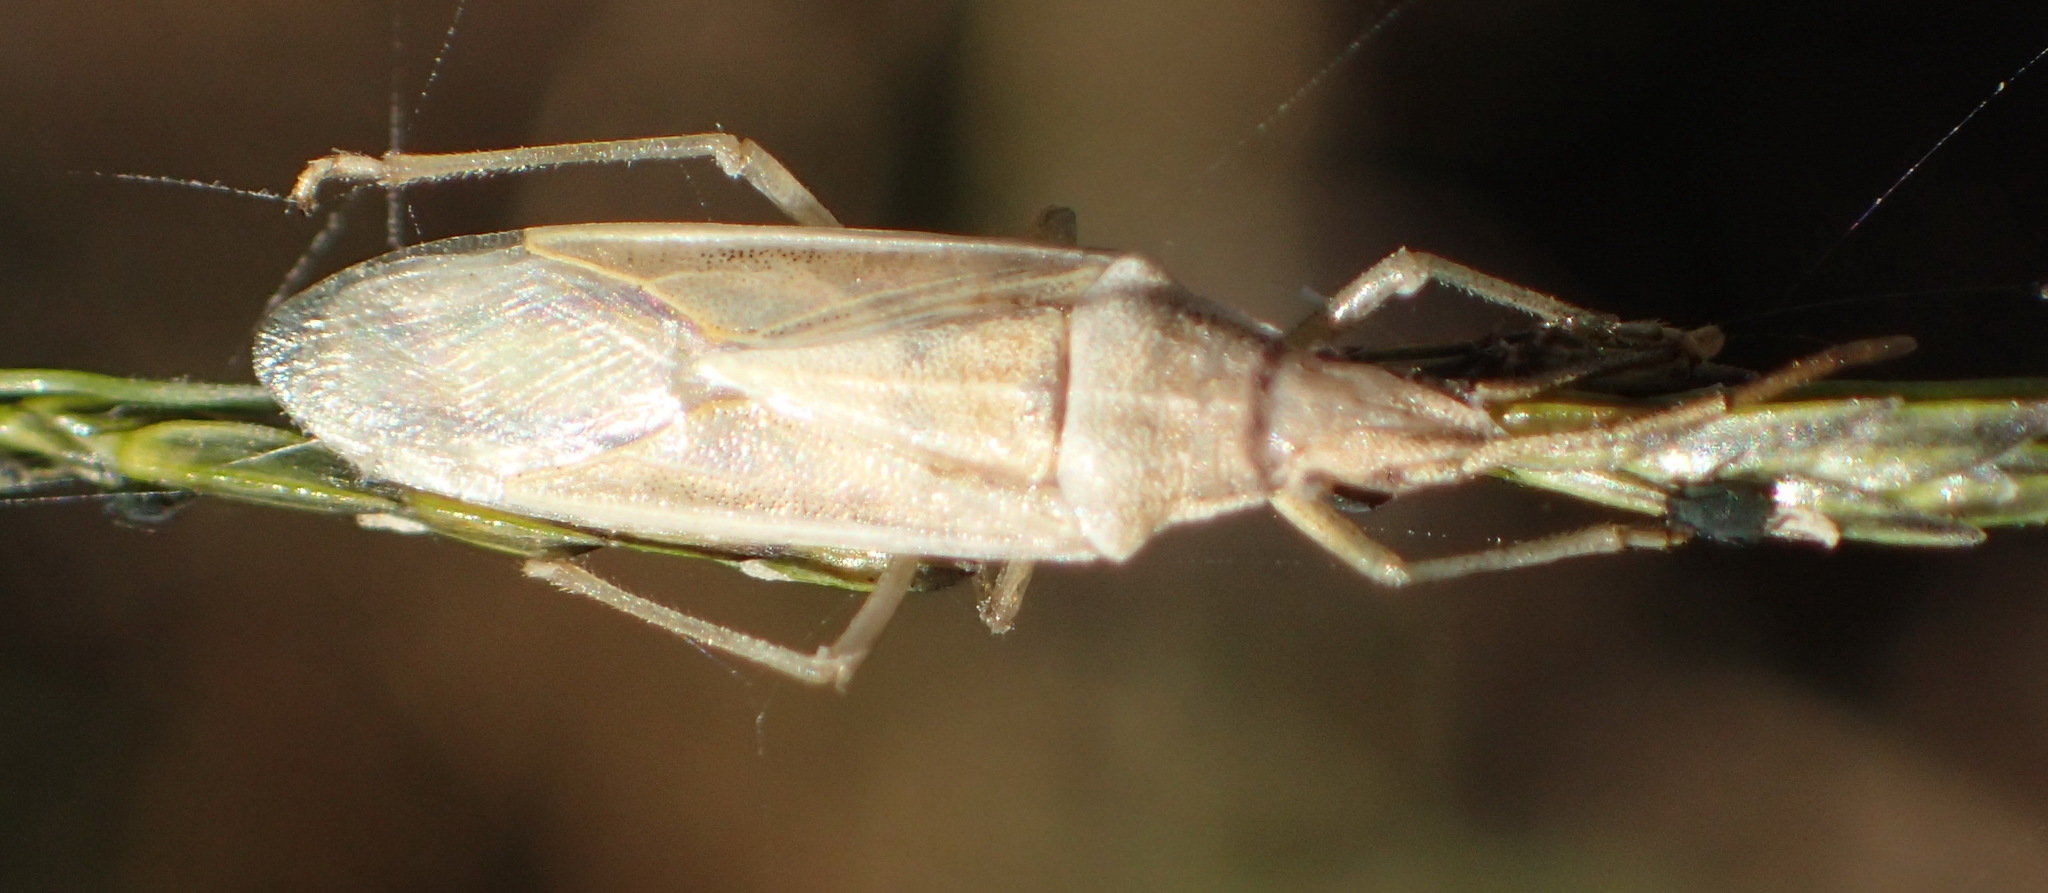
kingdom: Animalia
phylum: Arthropoda
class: Insecta
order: Hemiptera
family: Pentatomidae
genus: Mecidea
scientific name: Mecidea
